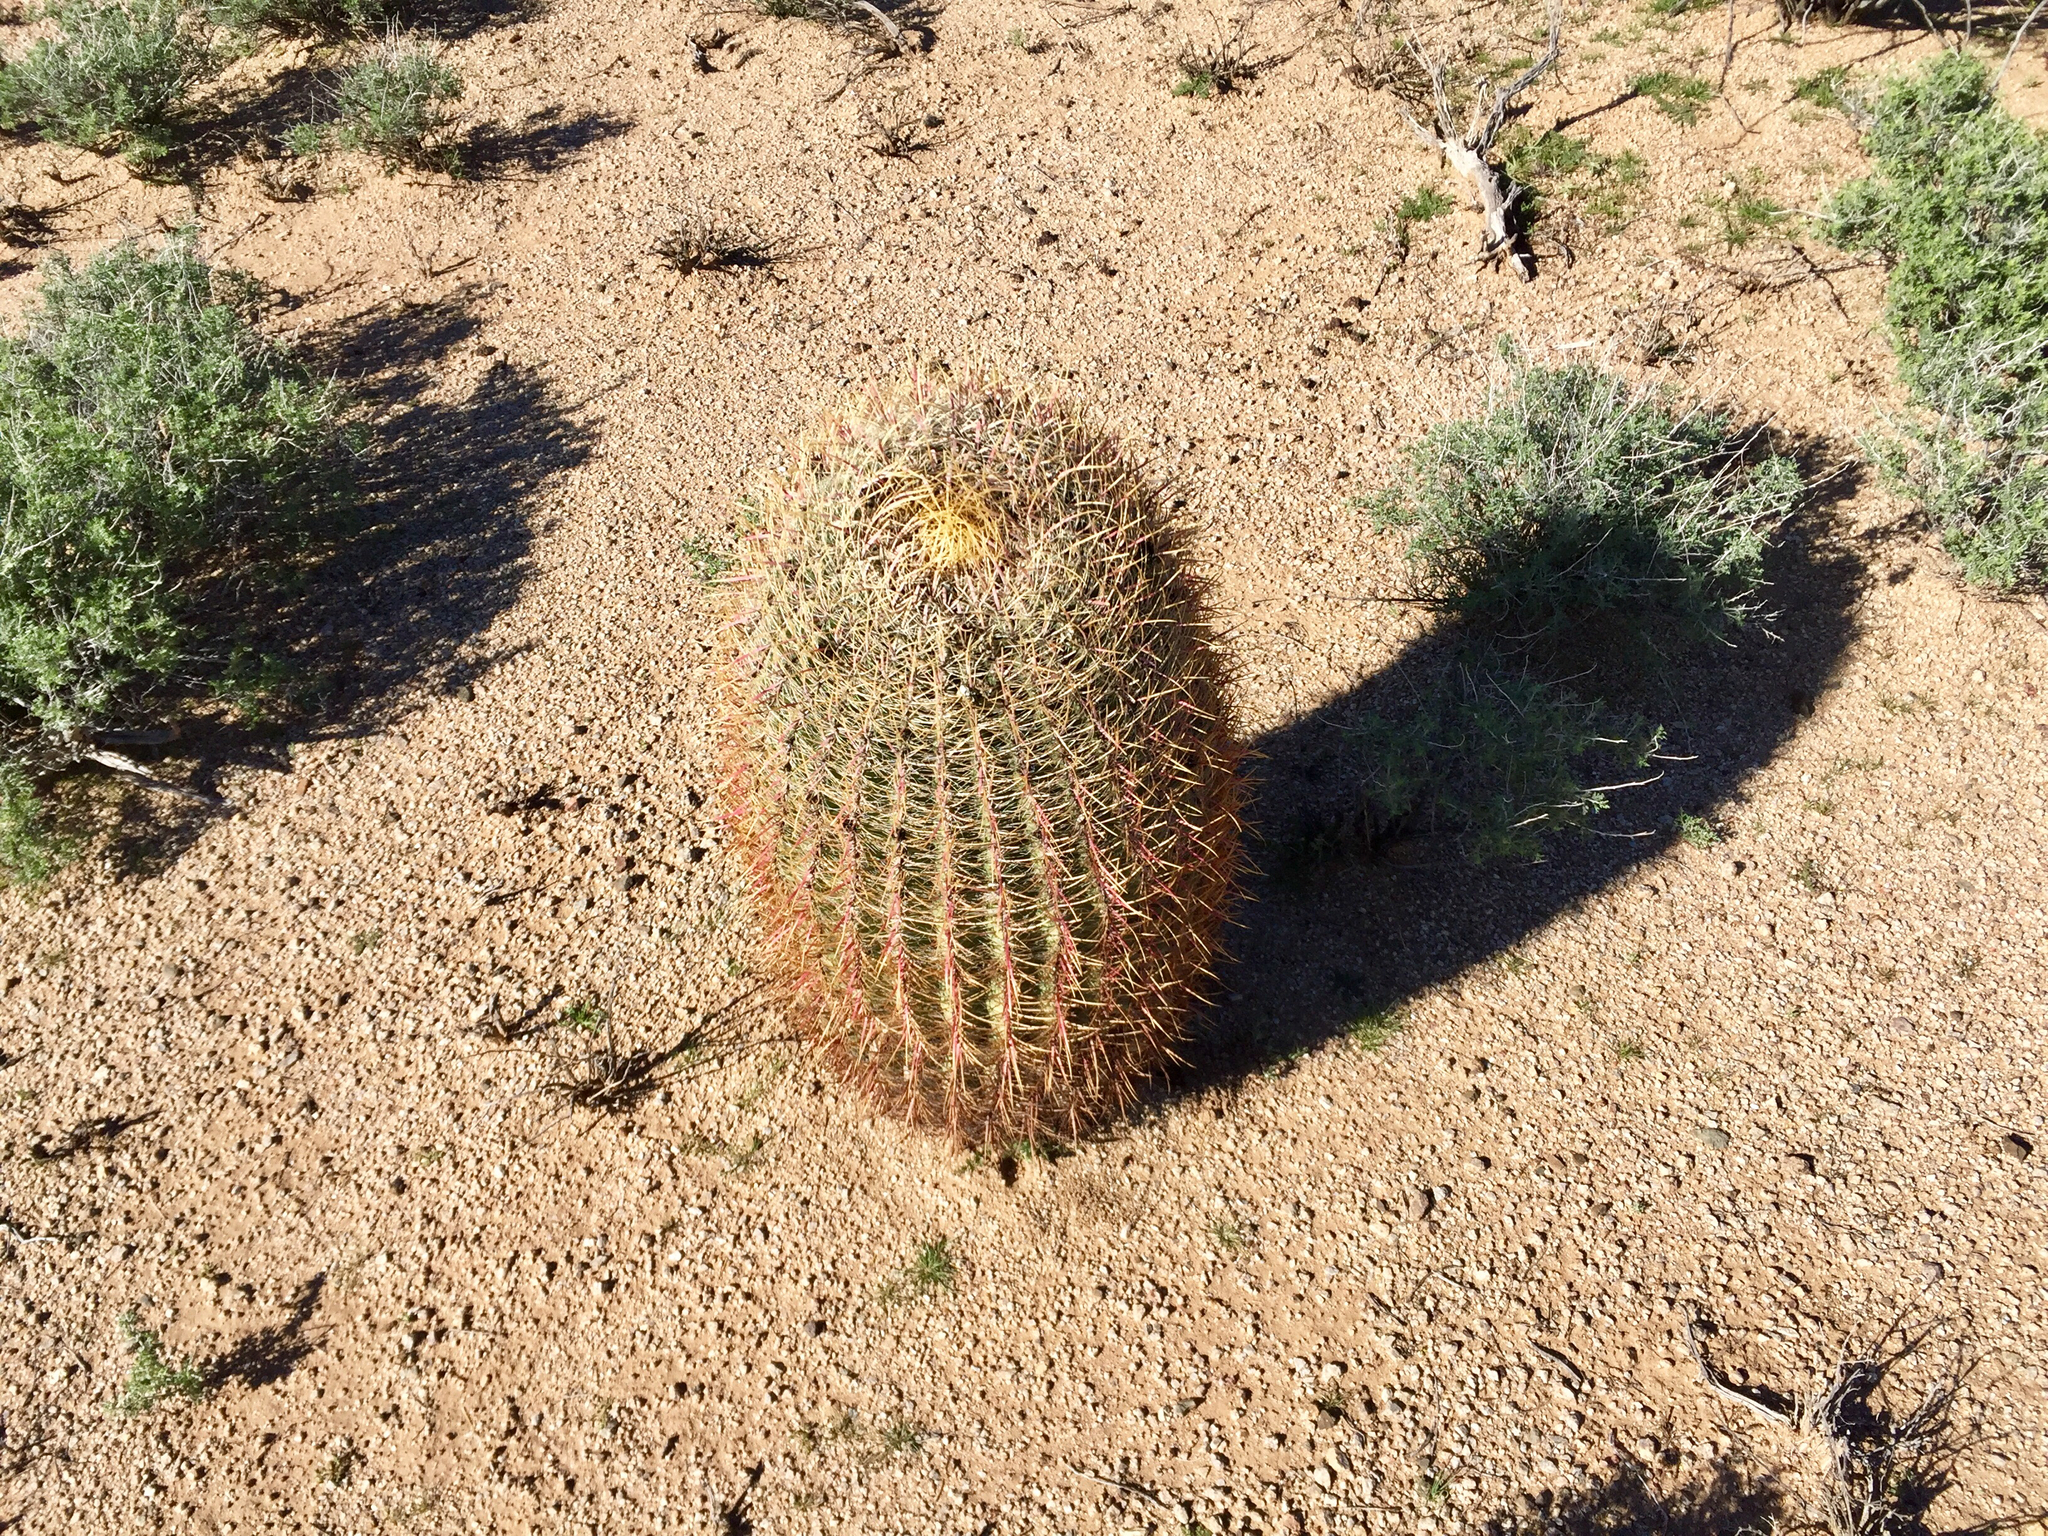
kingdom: Plantae
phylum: Tracheophyta
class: Magnoliopsida
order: Caryophyllales
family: Cactaceae
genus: Ferocactus
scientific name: Ferocactus cylindraceus
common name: California barrel cactus
